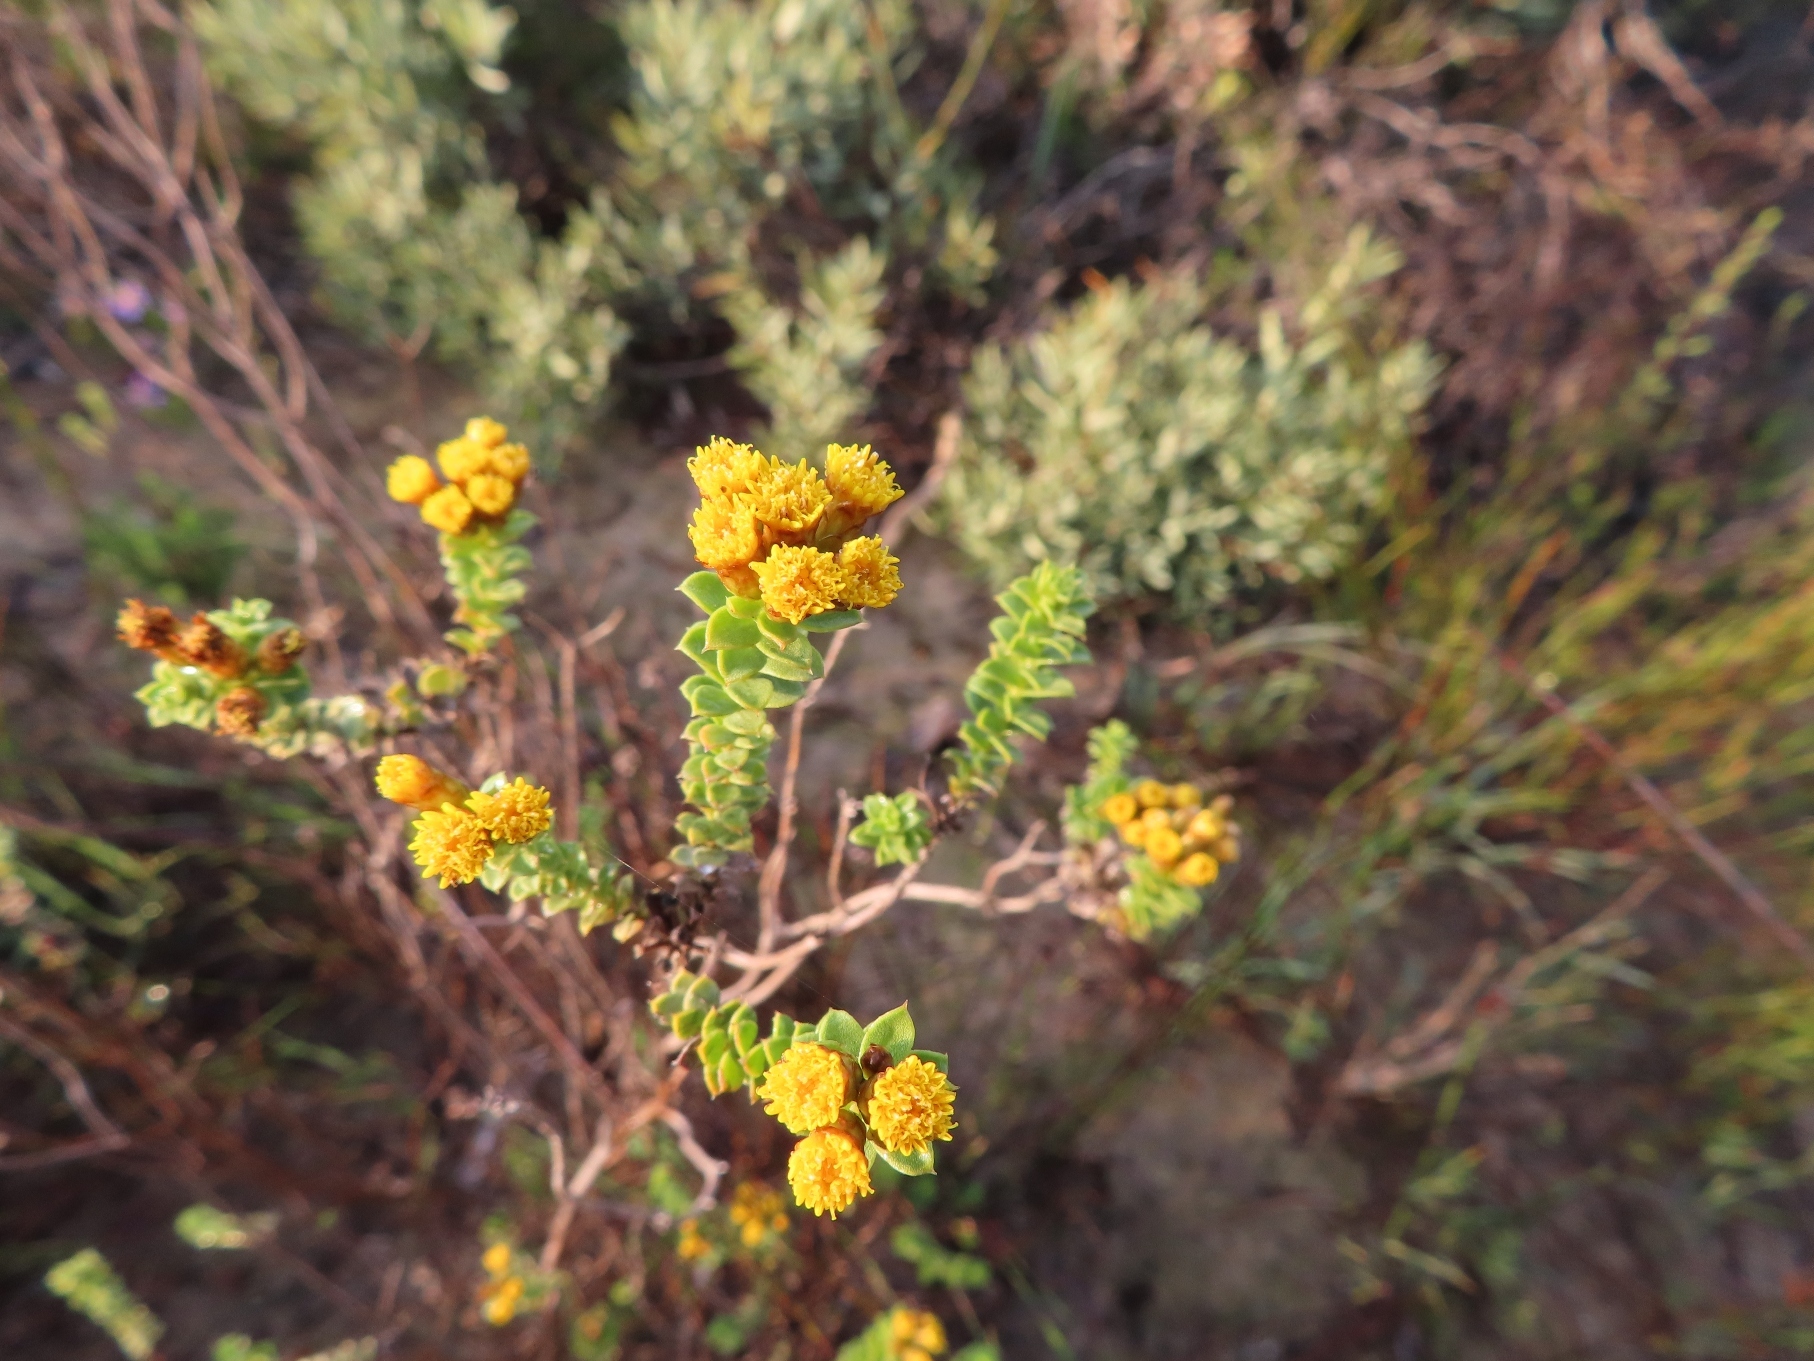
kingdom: Plantae
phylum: Tracheophyta
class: Magnoliopsida
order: Asterales
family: Asteraceae
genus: Oedera
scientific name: Oedera squarrosa
